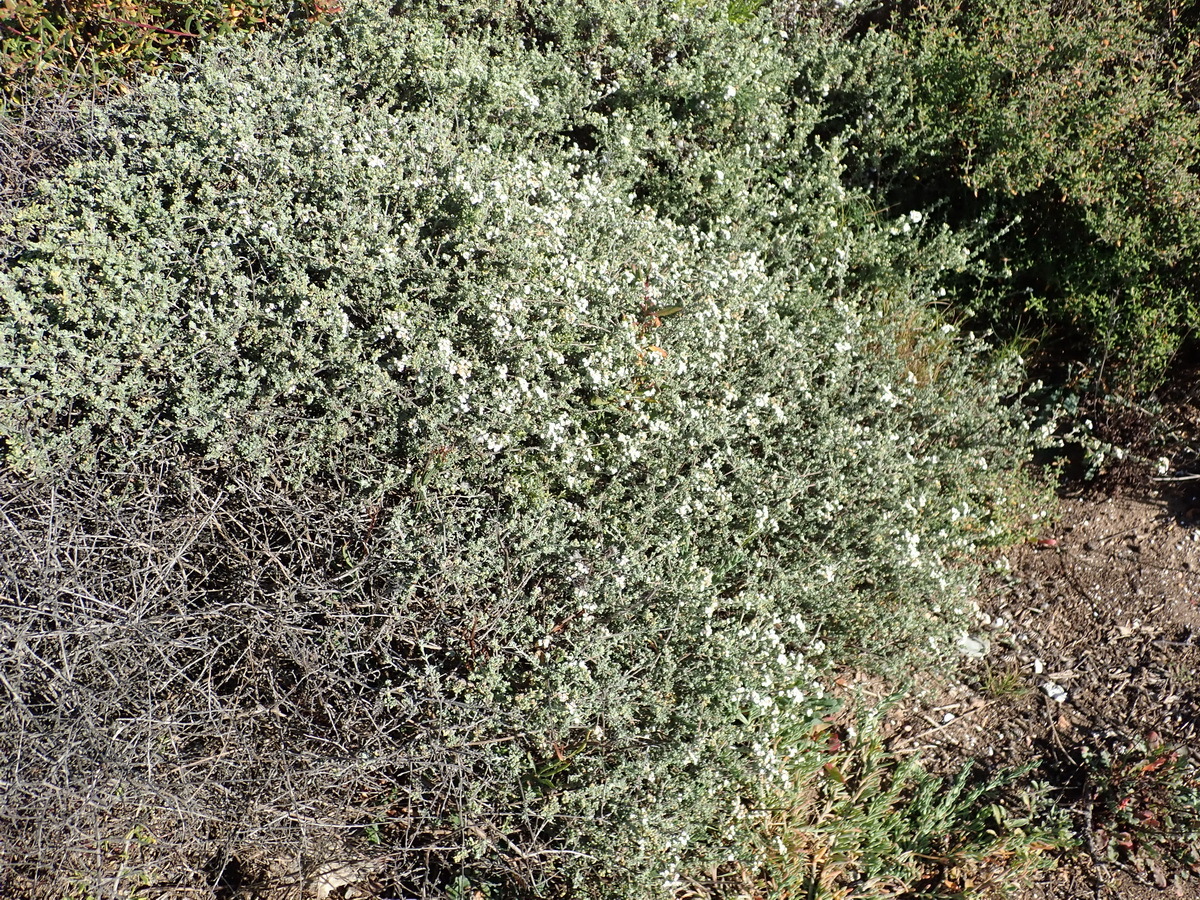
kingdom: Plantae
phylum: Tracheophyta
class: Magnoliopsida
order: Asterales
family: Asteraceae
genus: Eriocephalus
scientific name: Eriocephalus africanus
